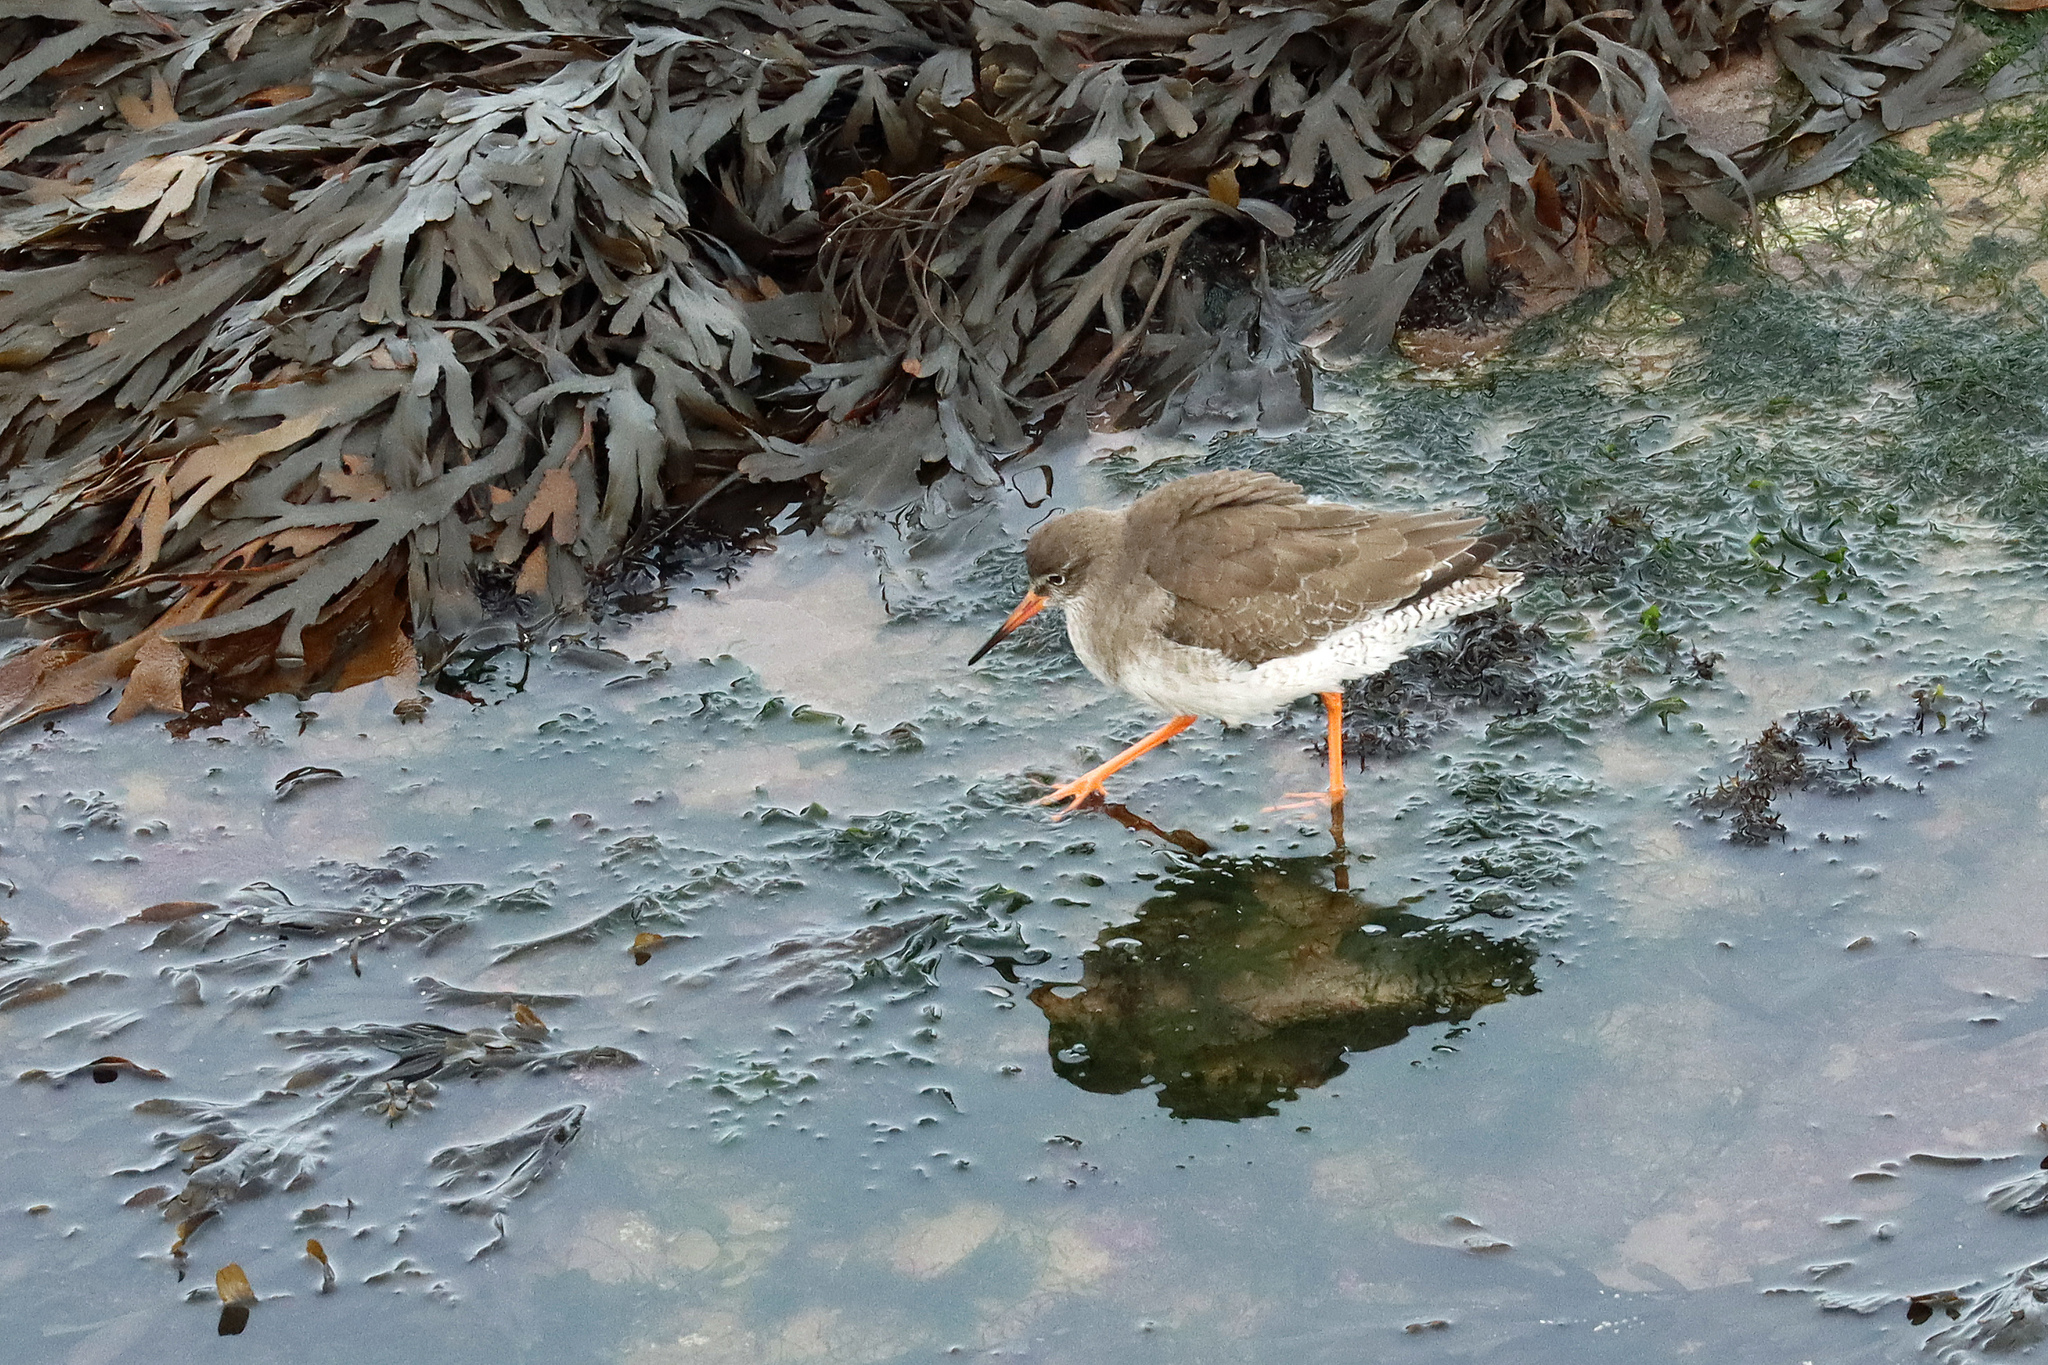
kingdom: Animalia
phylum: Chordata
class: Aves
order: Charadriiformes
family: Scolopacidae
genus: Tringa
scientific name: Tringa totanus
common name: Common redshank
